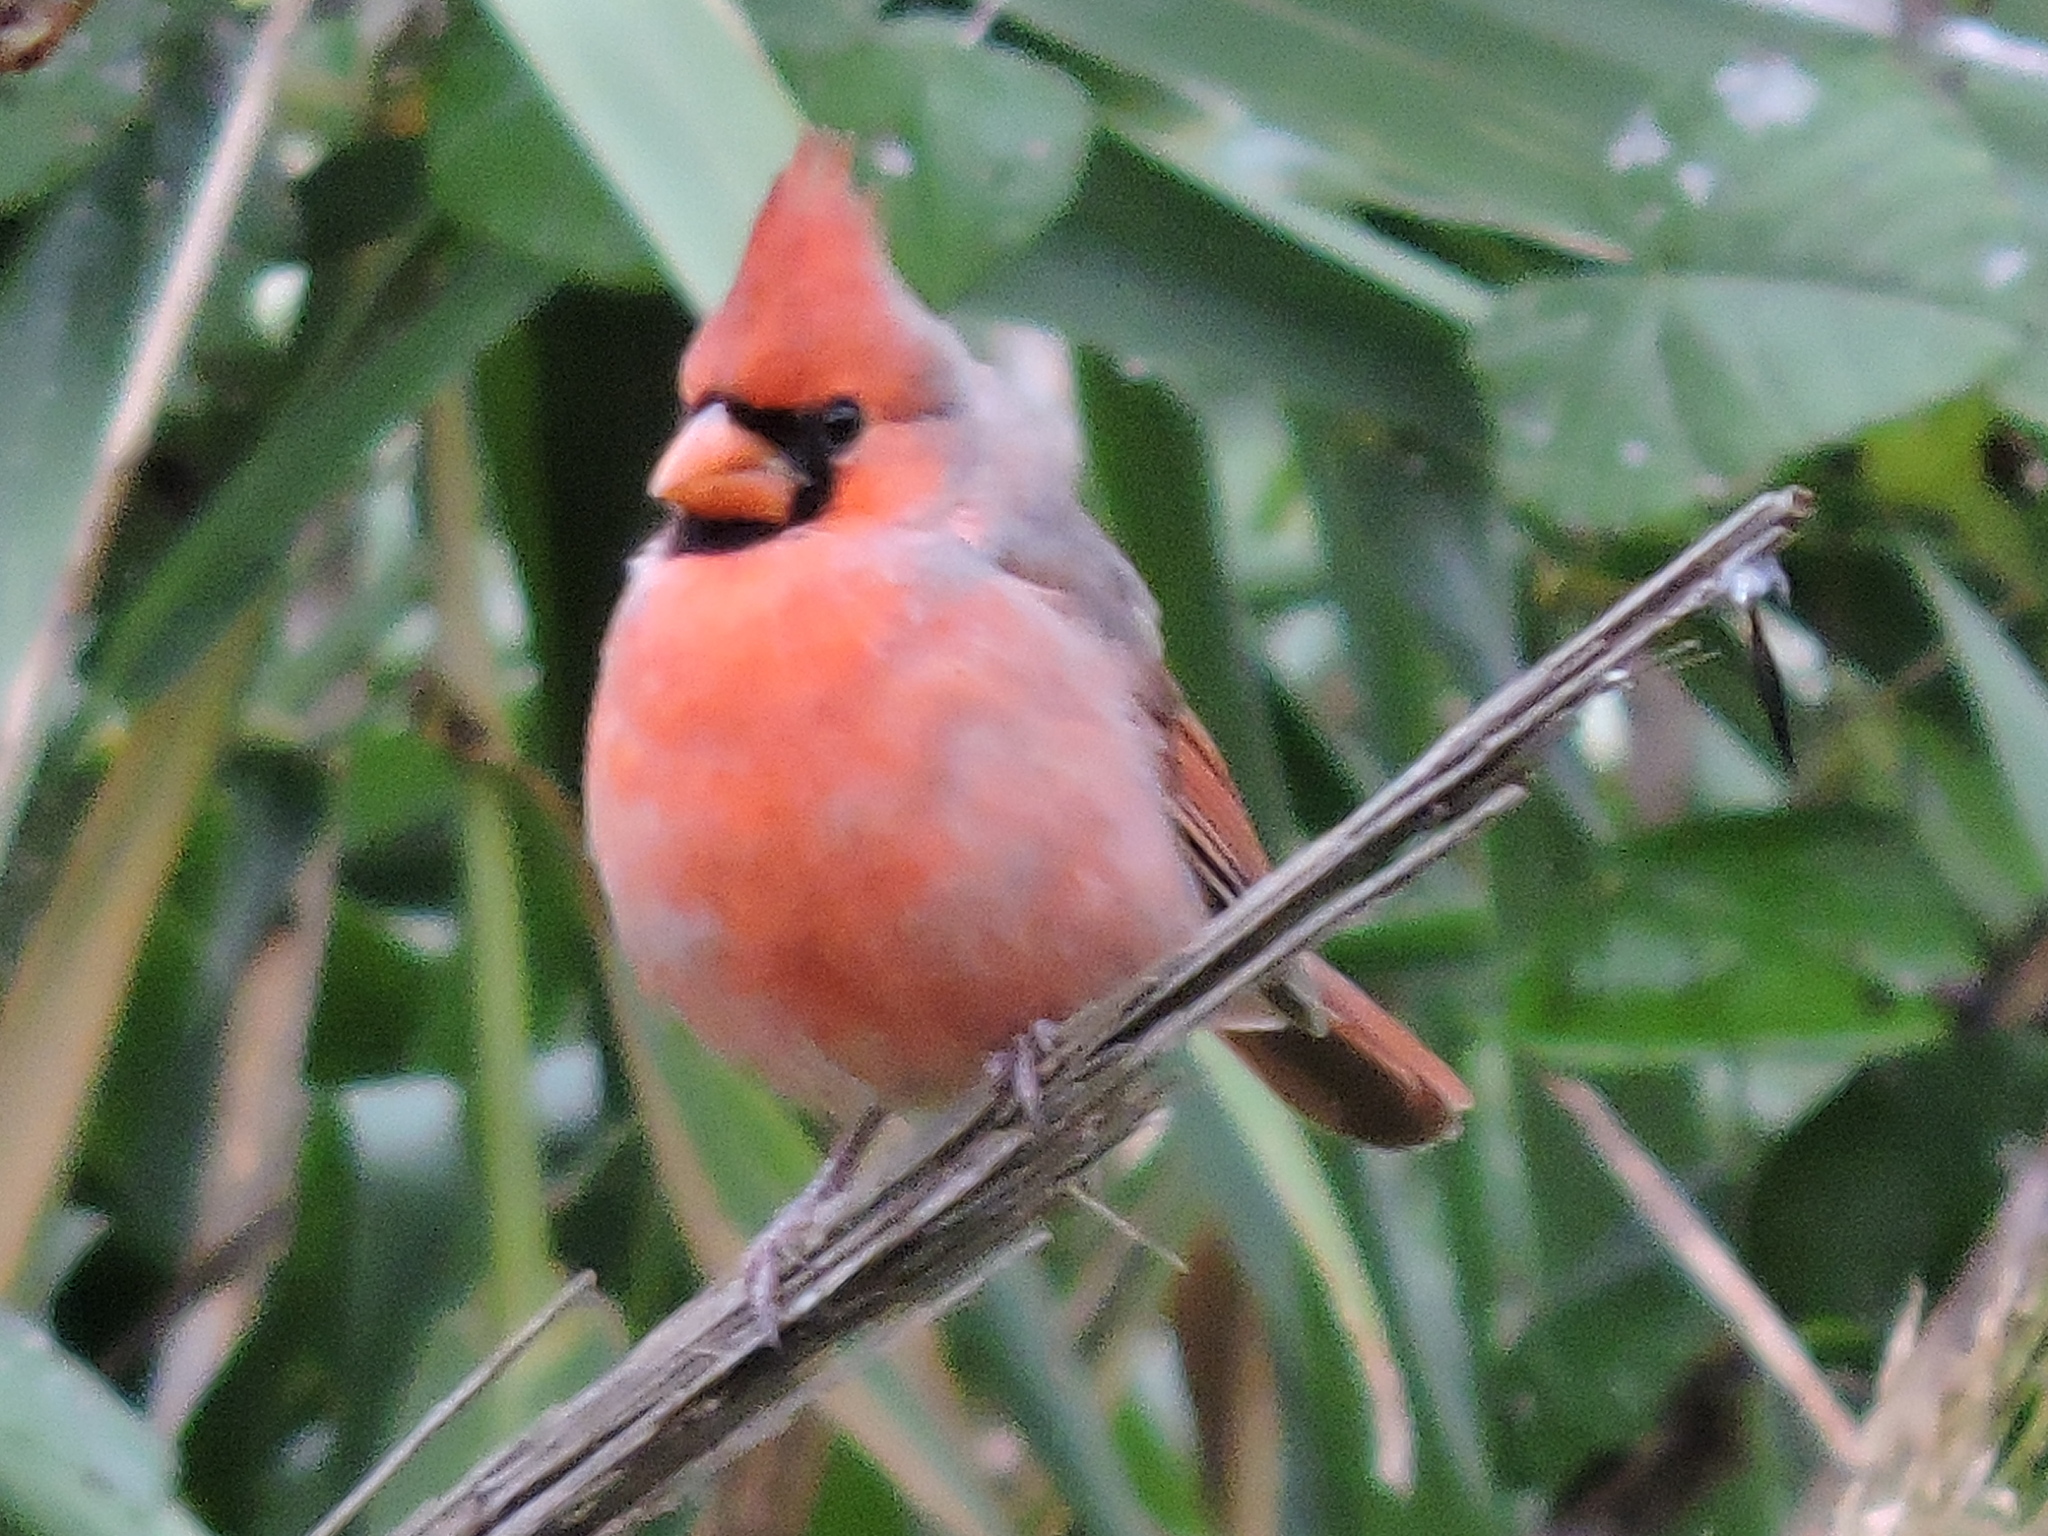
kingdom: Animalia
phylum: Chordata
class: Aves
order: Passeriformes
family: Cardinalidae
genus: Cardinalis
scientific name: Cardinalis cardinalis
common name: Northern cardinal
